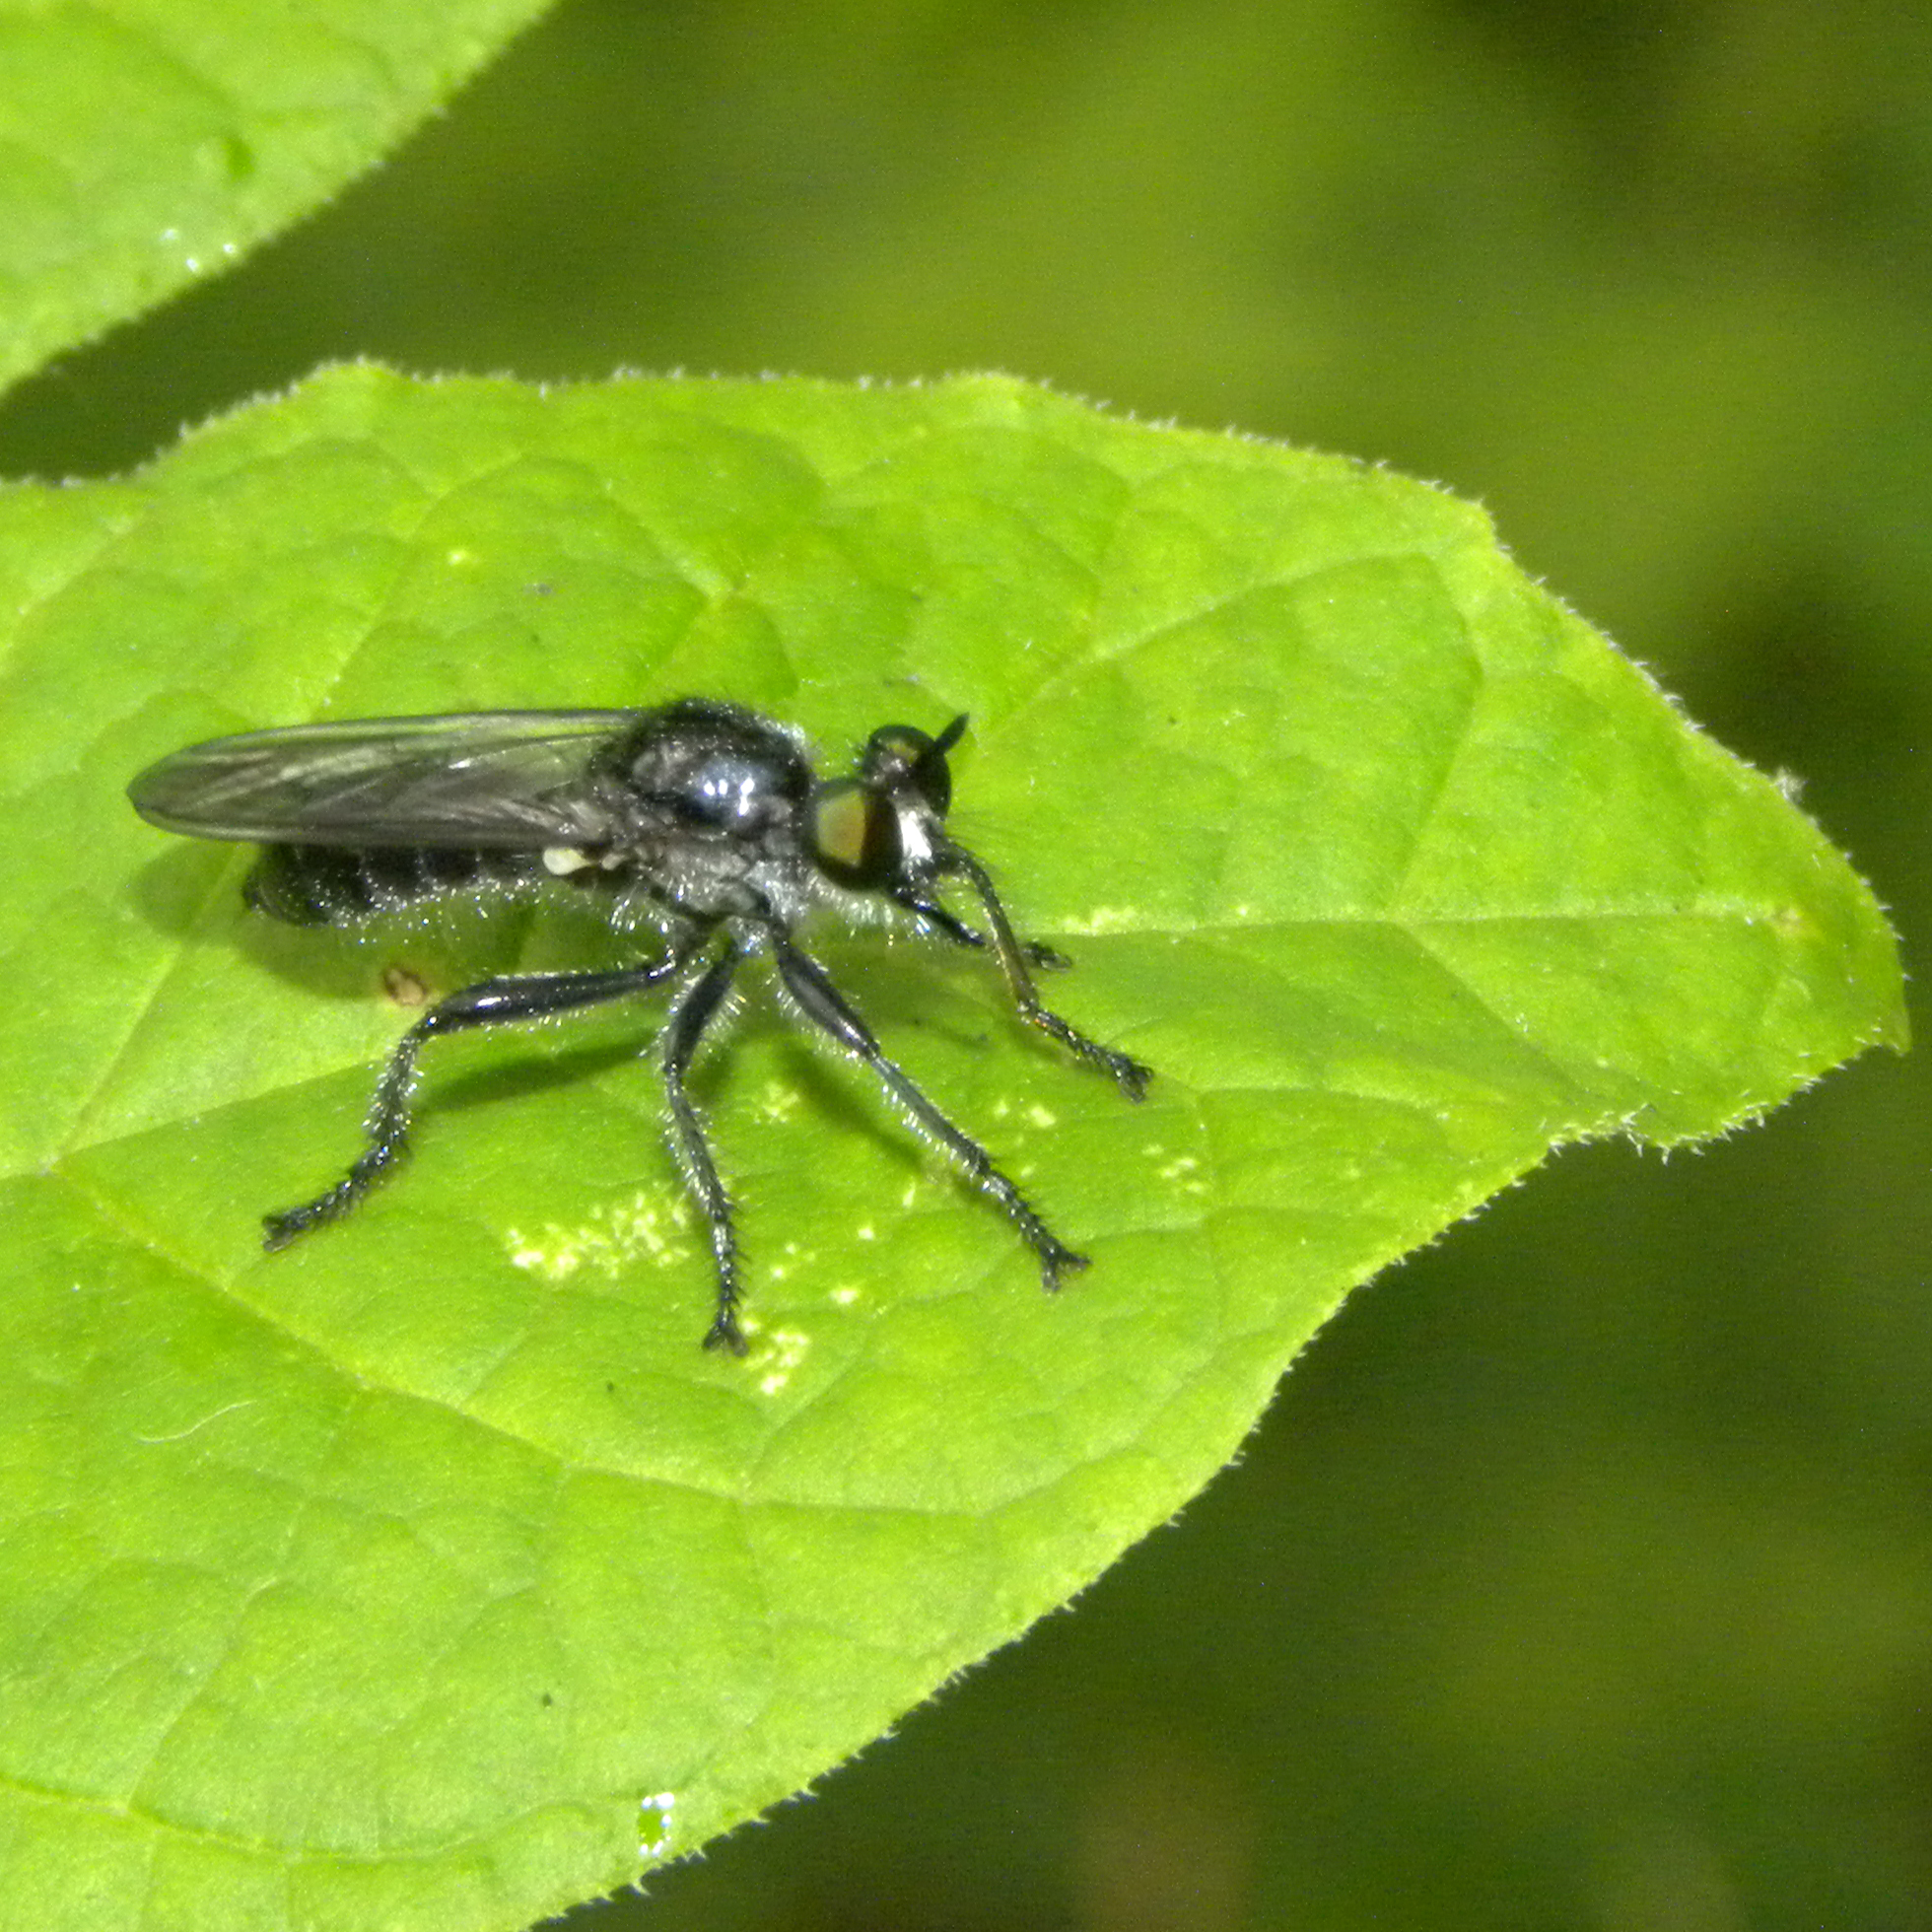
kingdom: Animalia
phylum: Arthropoda
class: Insecta
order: Diptera
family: Asilidae
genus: Laphria
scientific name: Laphria
